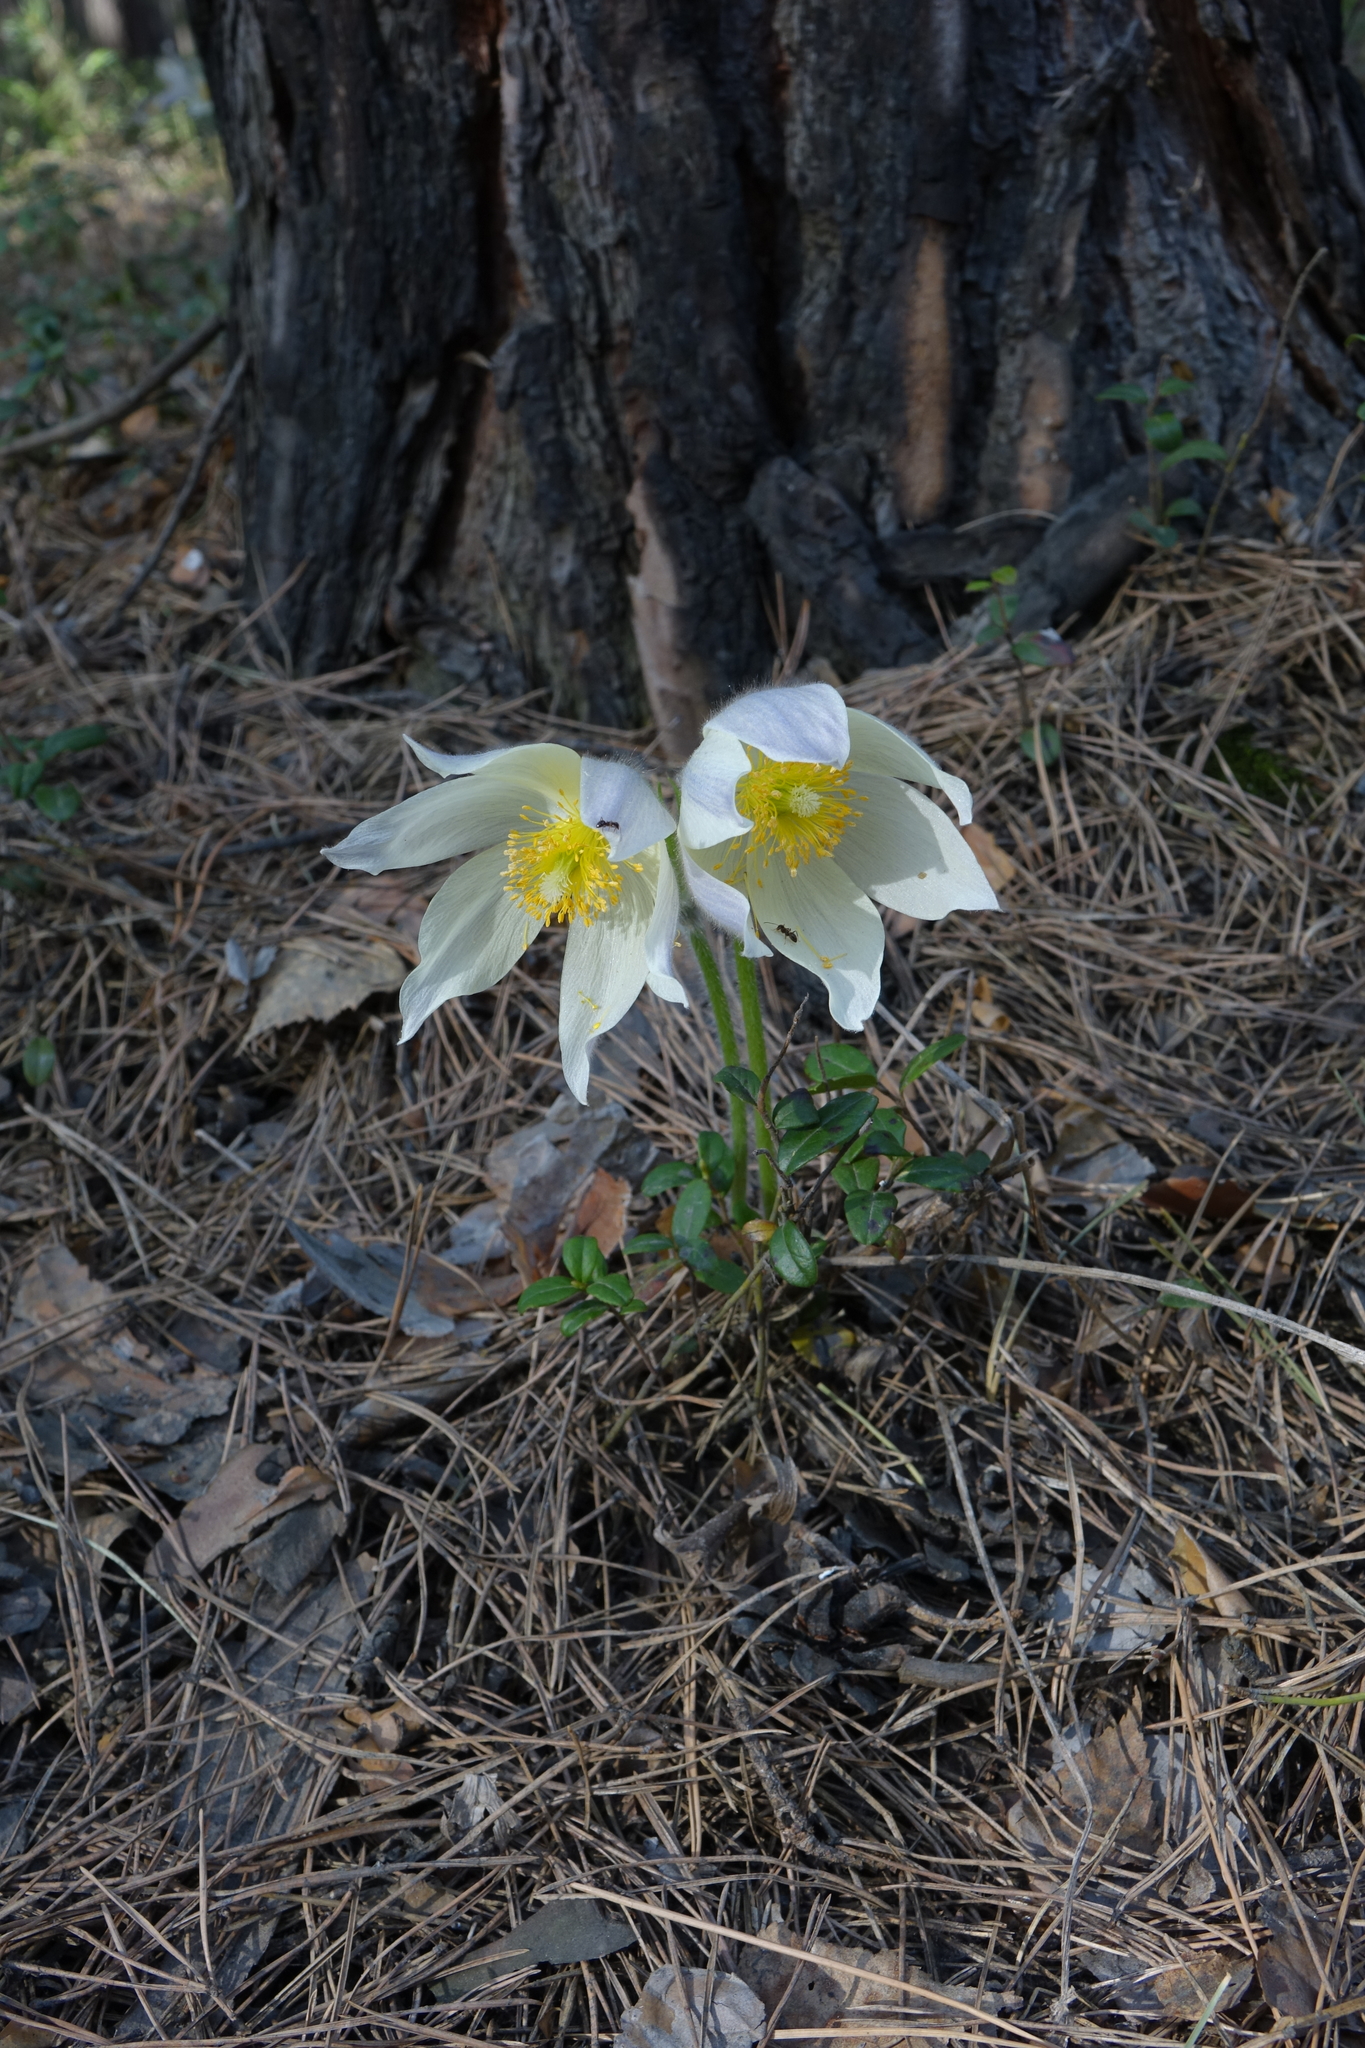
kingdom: Plantae
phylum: Tracheophyta
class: Magnoliopsida
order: Ranunculales
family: Ranunculaceae
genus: Pulsatilla
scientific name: Pulsatilla patens
